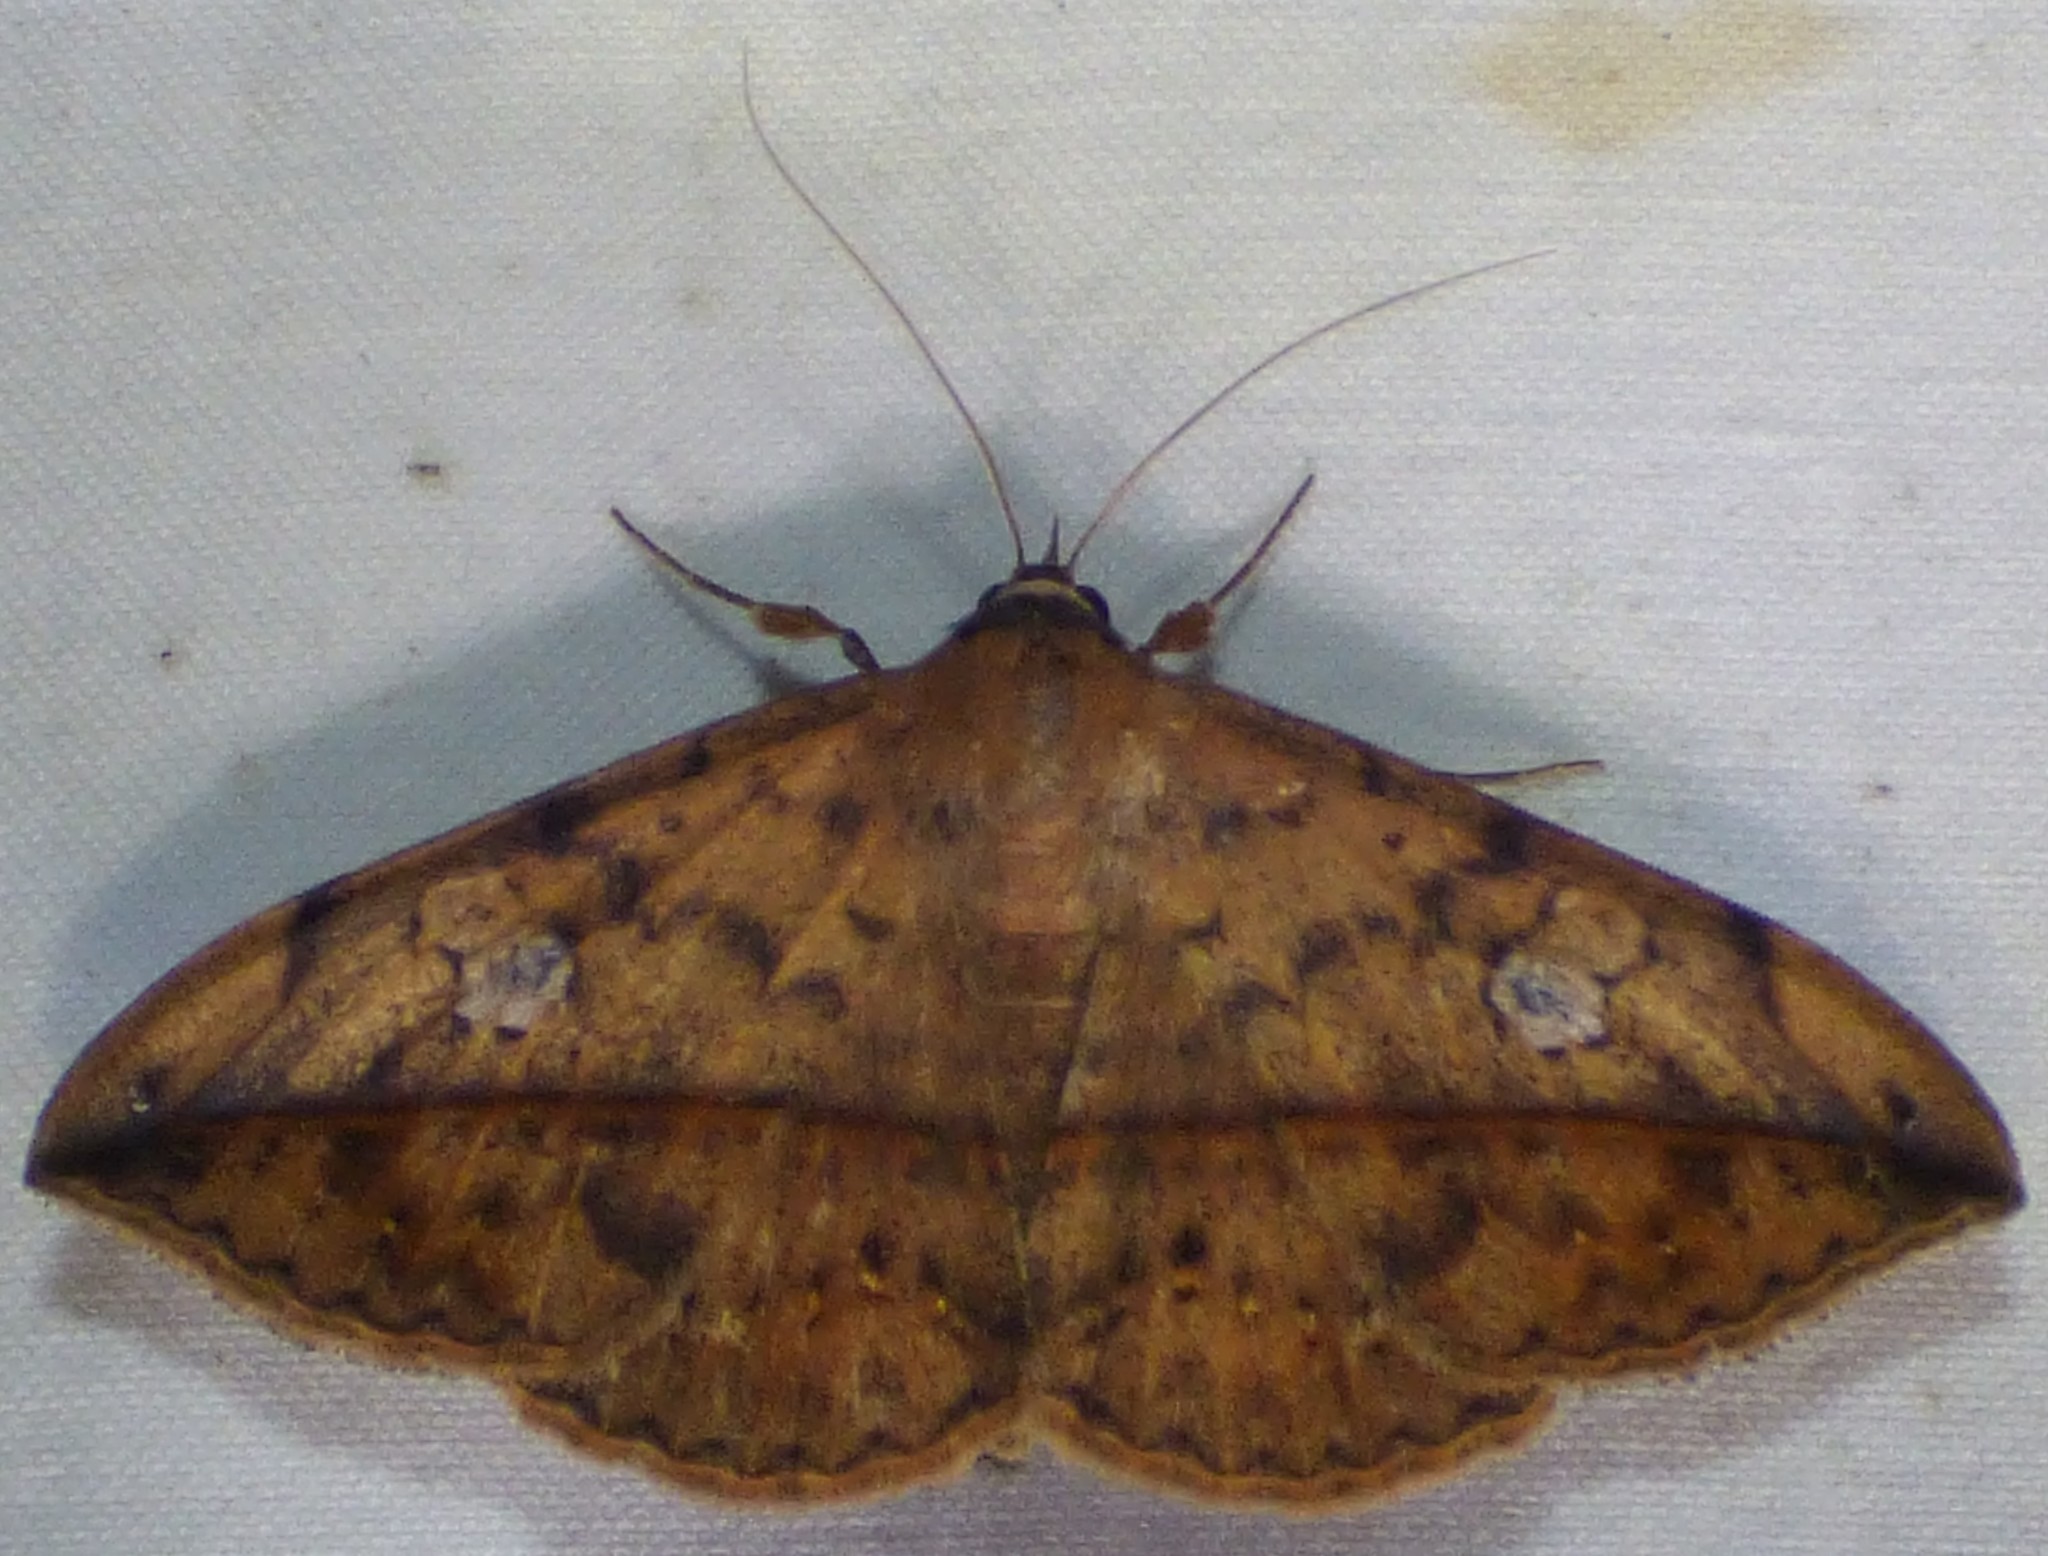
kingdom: Animalia
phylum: Arthropoda
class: Insecta
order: Lepidoptera
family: Erebidae
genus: Anticarsia
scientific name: Anticarsia gemmatalis
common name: Cutworm moth
